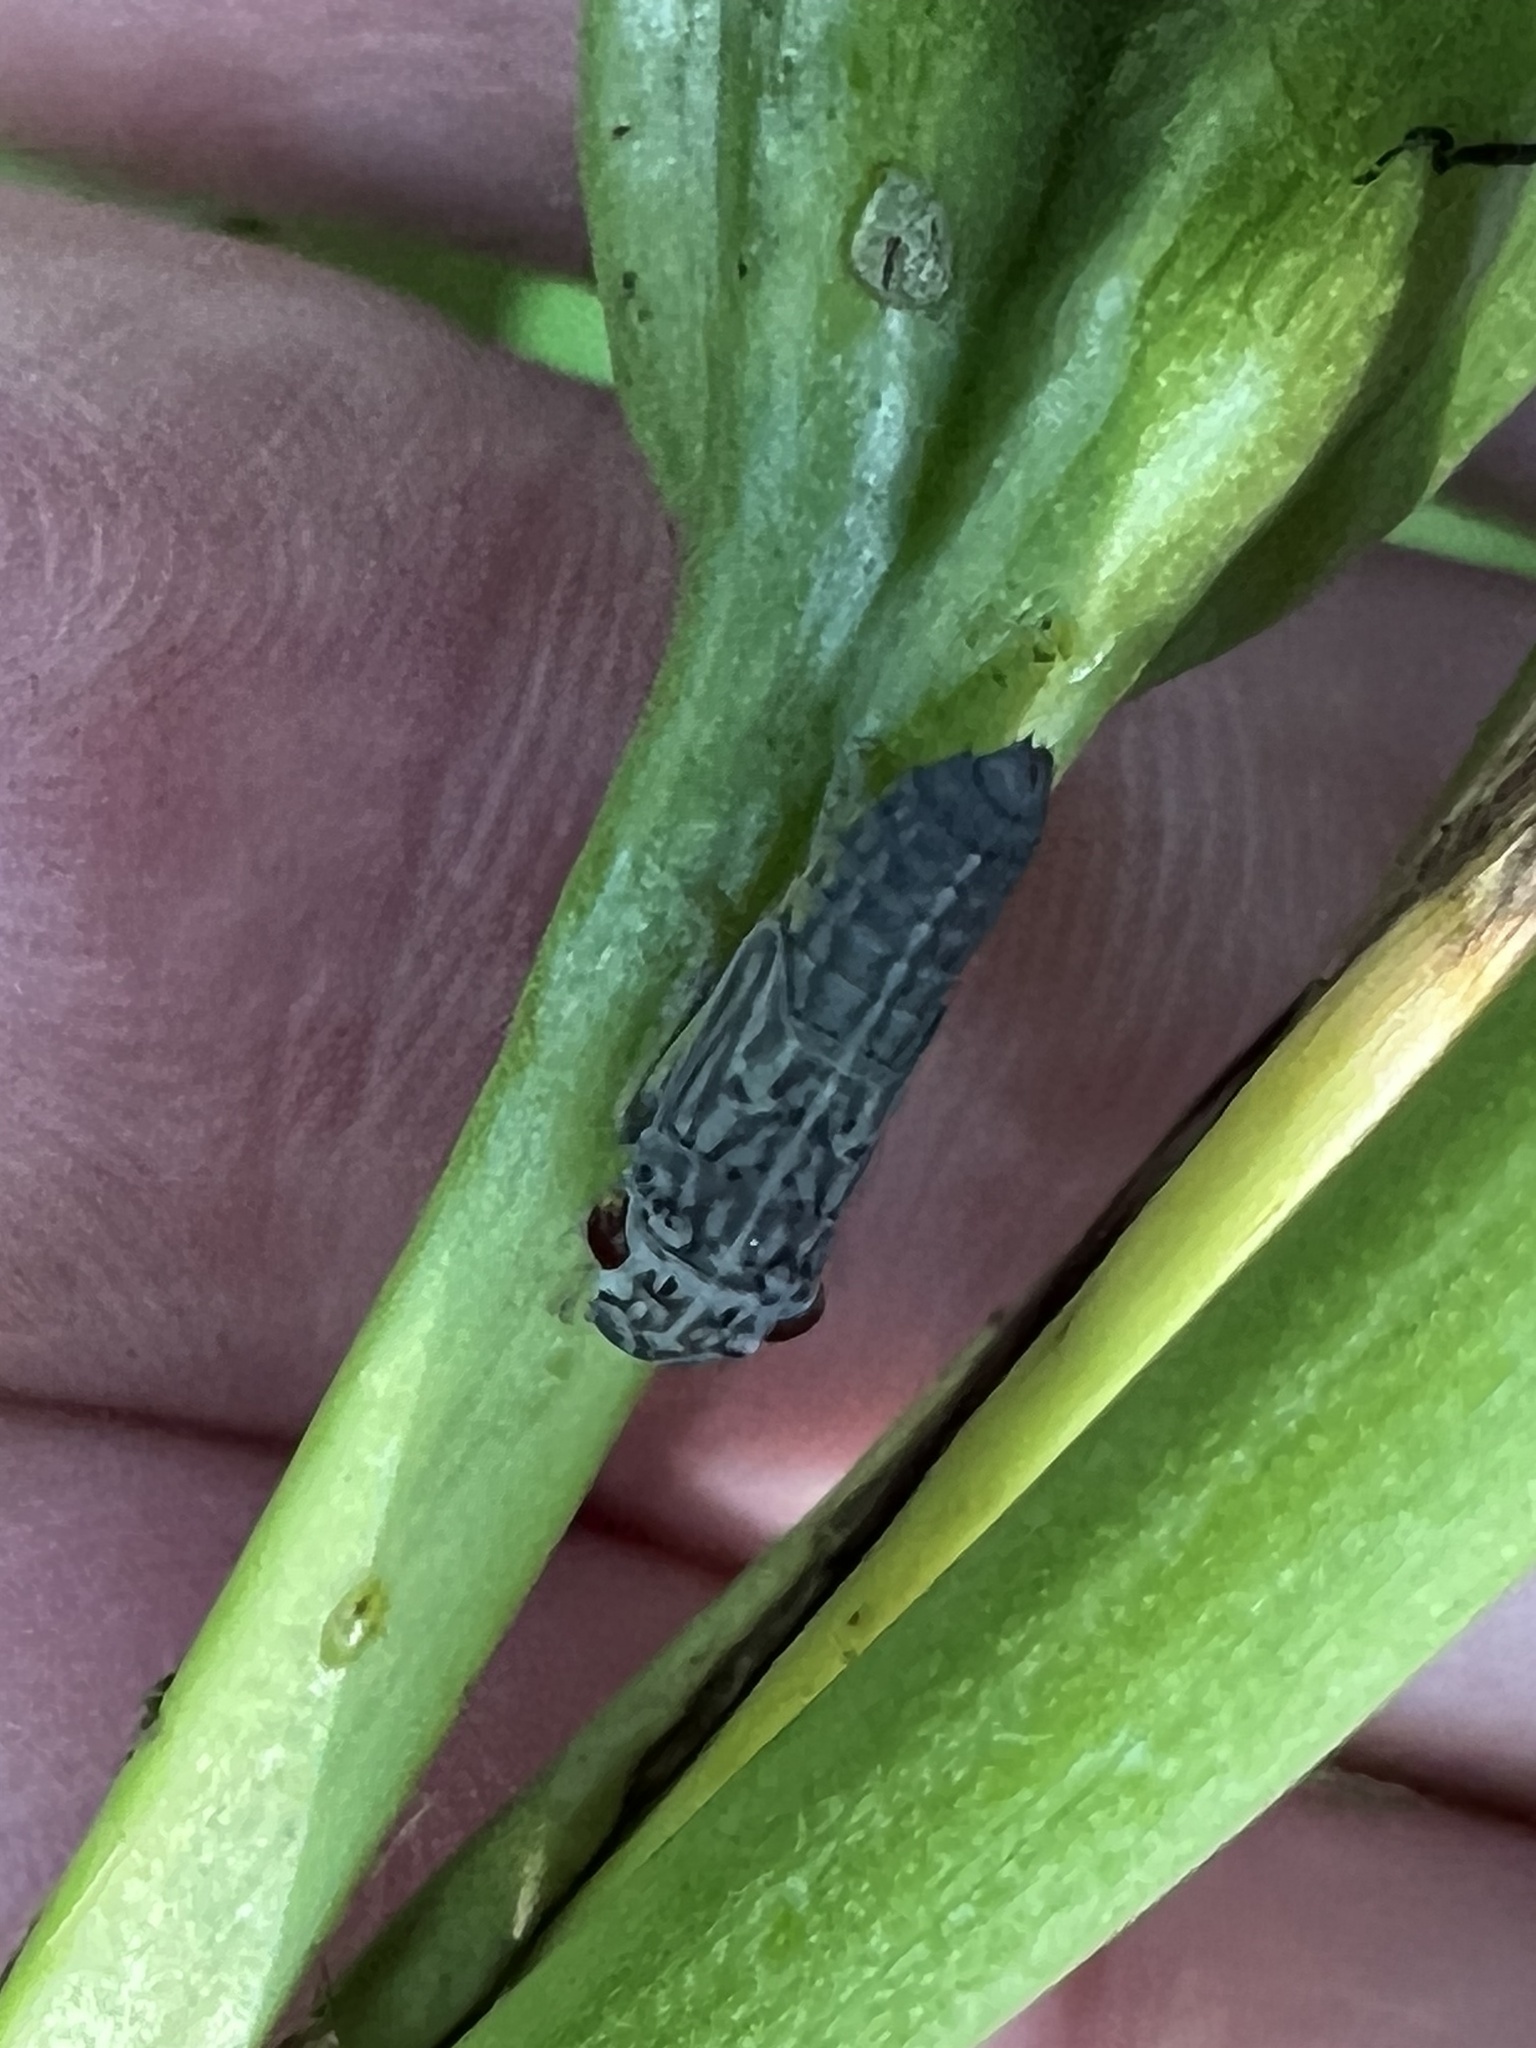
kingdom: Animalia
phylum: Arthropoda
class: Insecta
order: Hemiptera
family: Cicadellidae
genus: Oncometopia
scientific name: Oncometopia orbona
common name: Broad-headed sharpshooter
